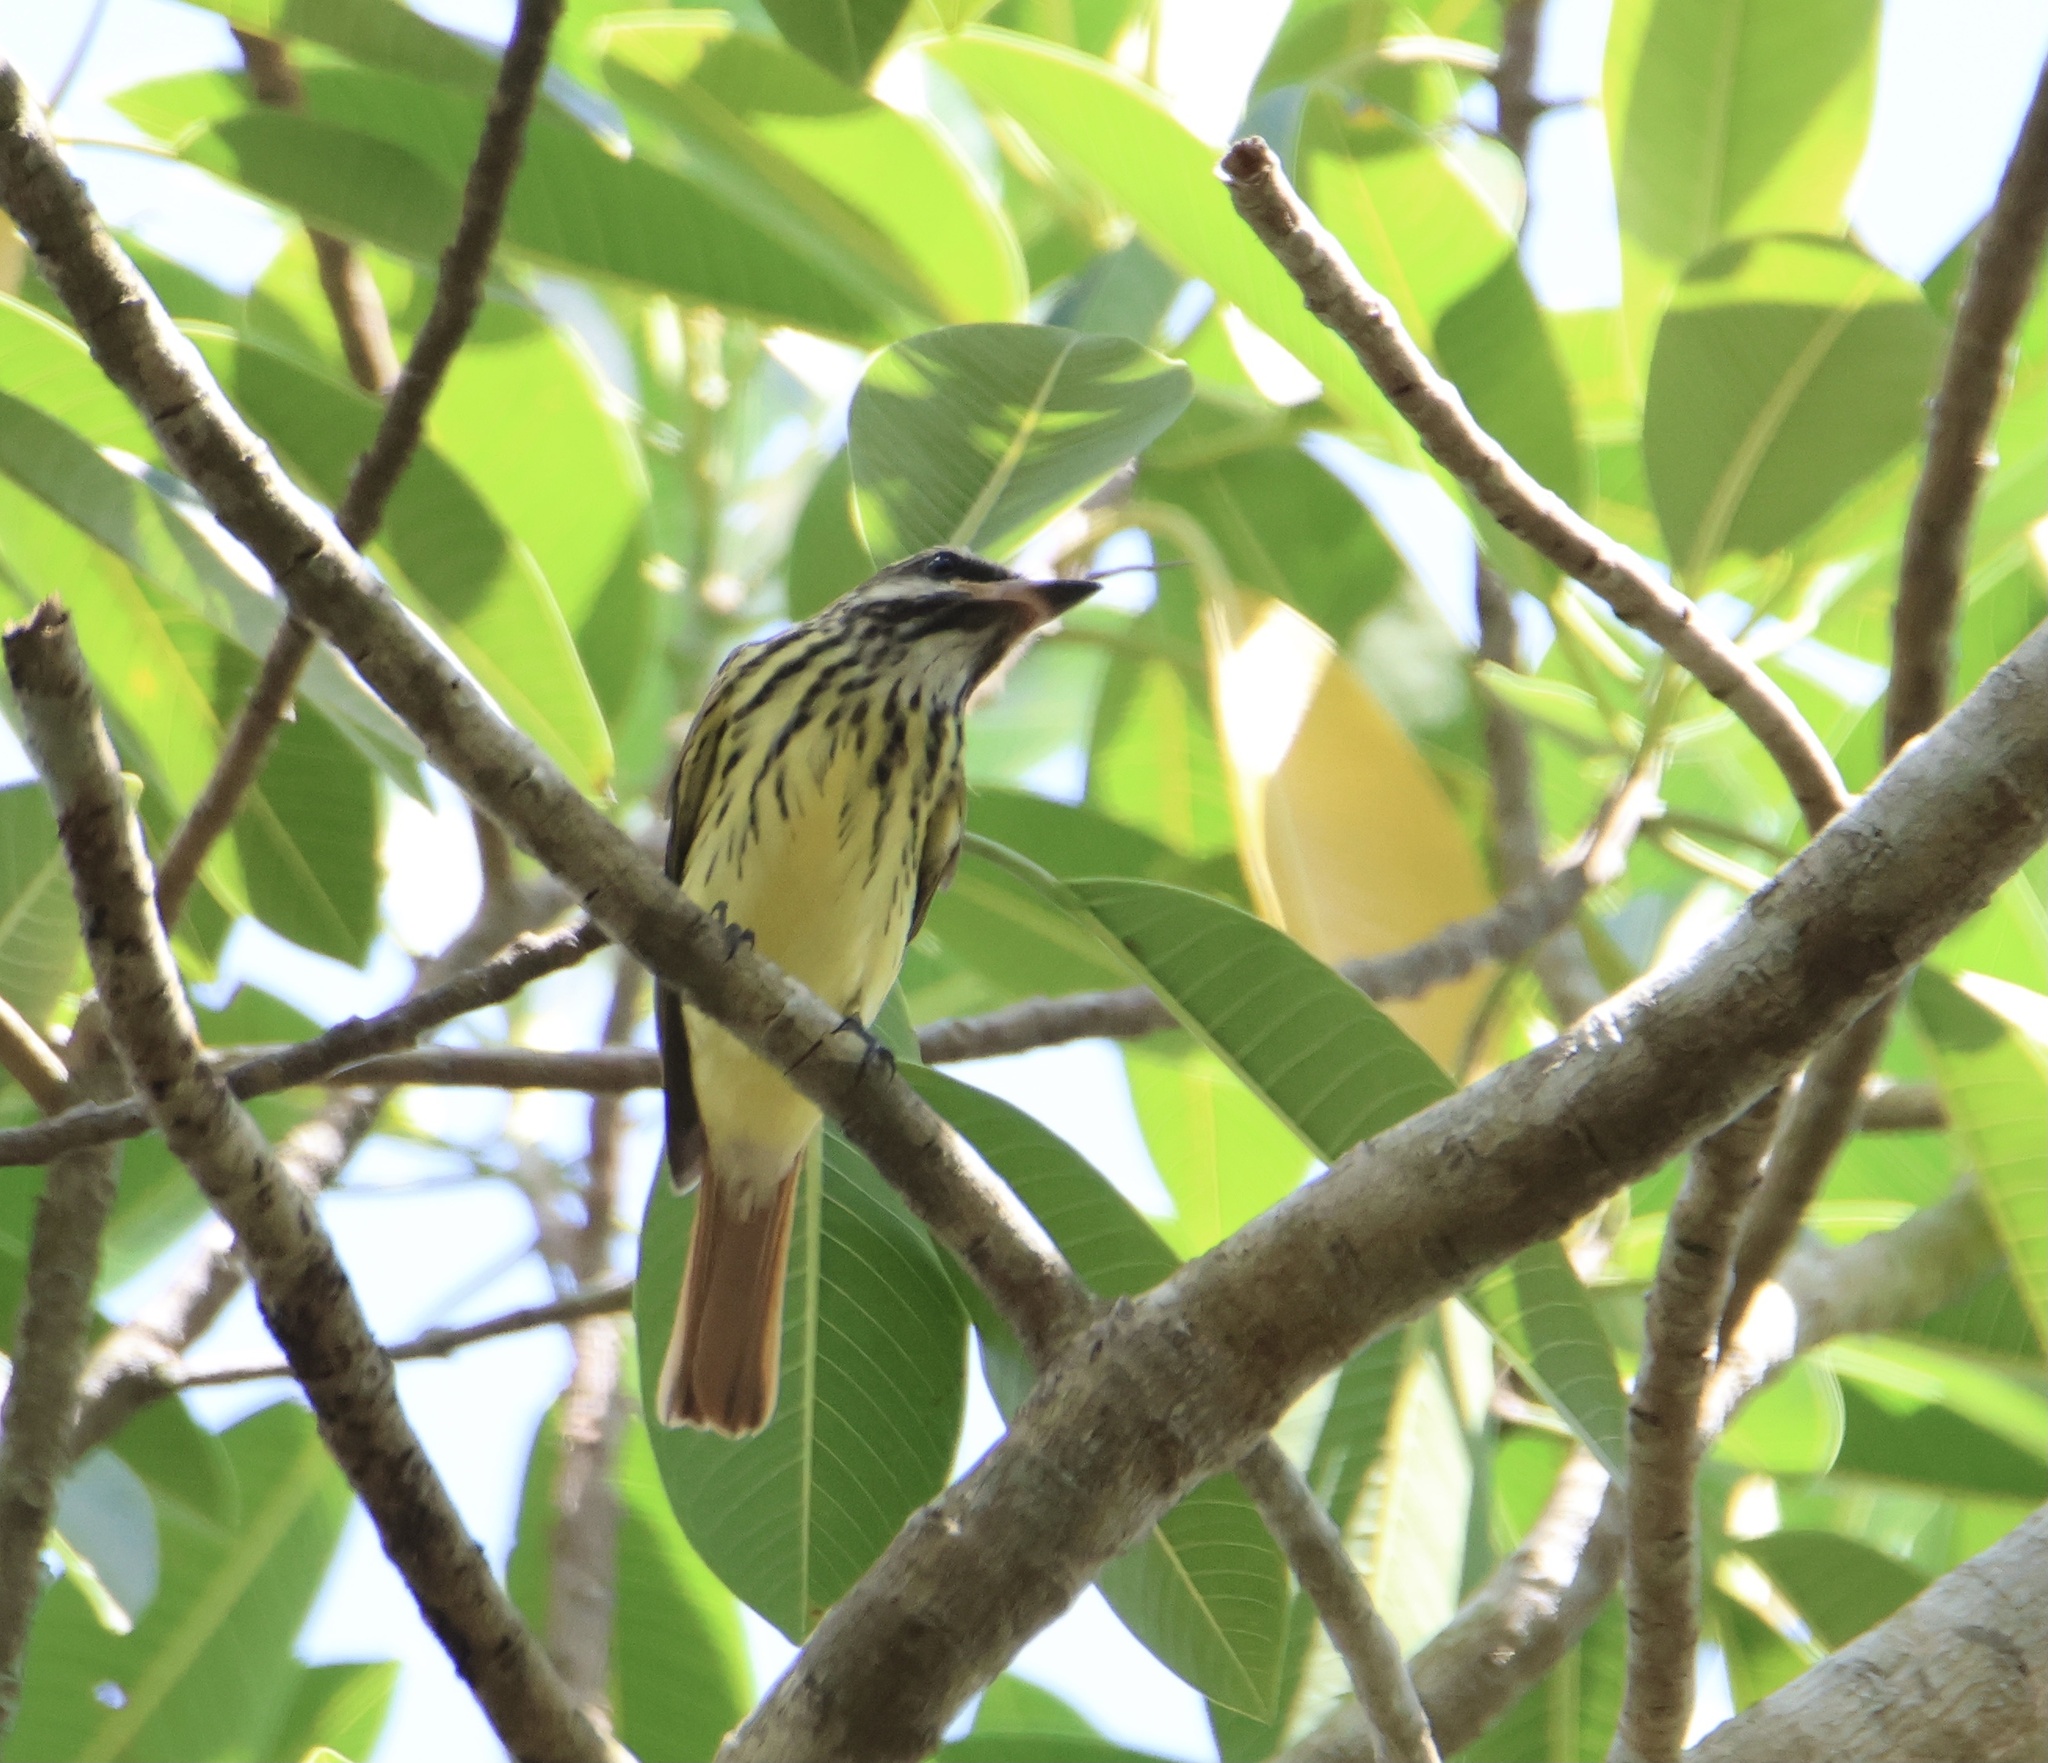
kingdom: Animalia
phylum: Chordata
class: Aves
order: Passeriformes
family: Tyrannidae
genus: Myiodynastes
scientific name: Myiodynastes luteiventris
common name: Sulphur-bellied flycatcher
